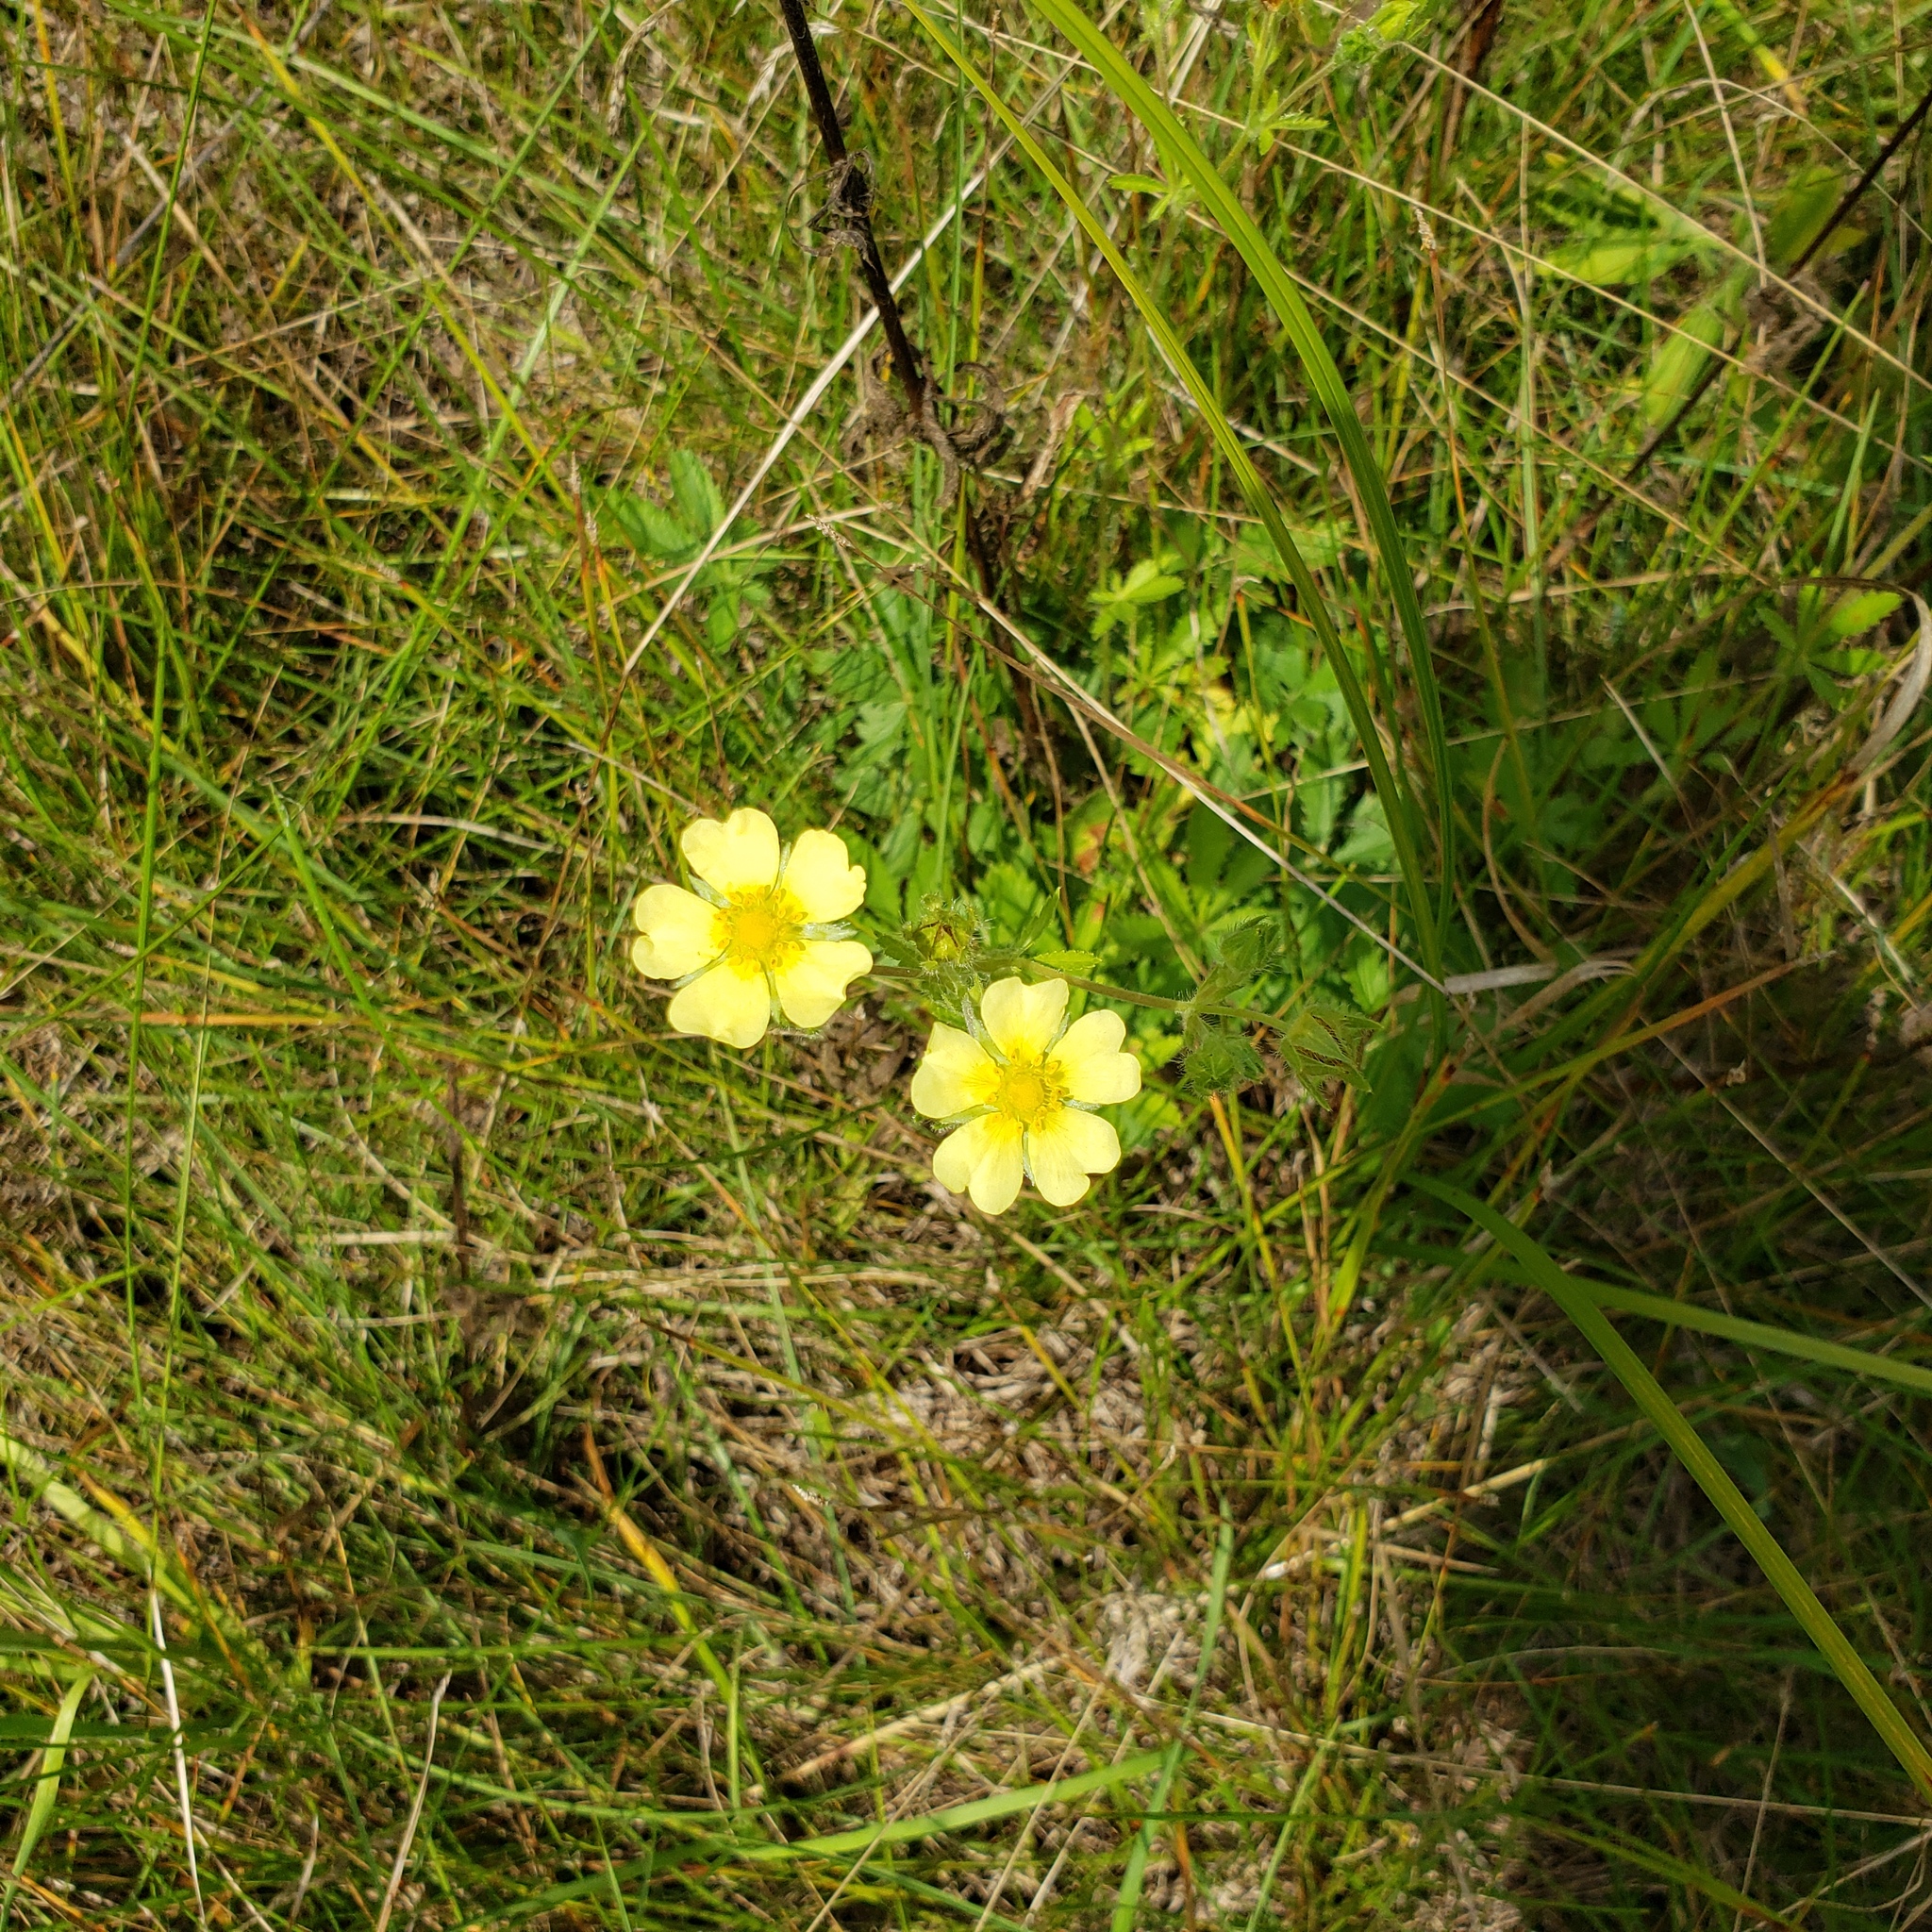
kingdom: Plantae
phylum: Tracheophyta
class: Magnoliopsida
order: Rosales
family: Rosaceae
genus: Potentilla
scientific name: Potentilla recta
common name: Sulphur cinquefoil
